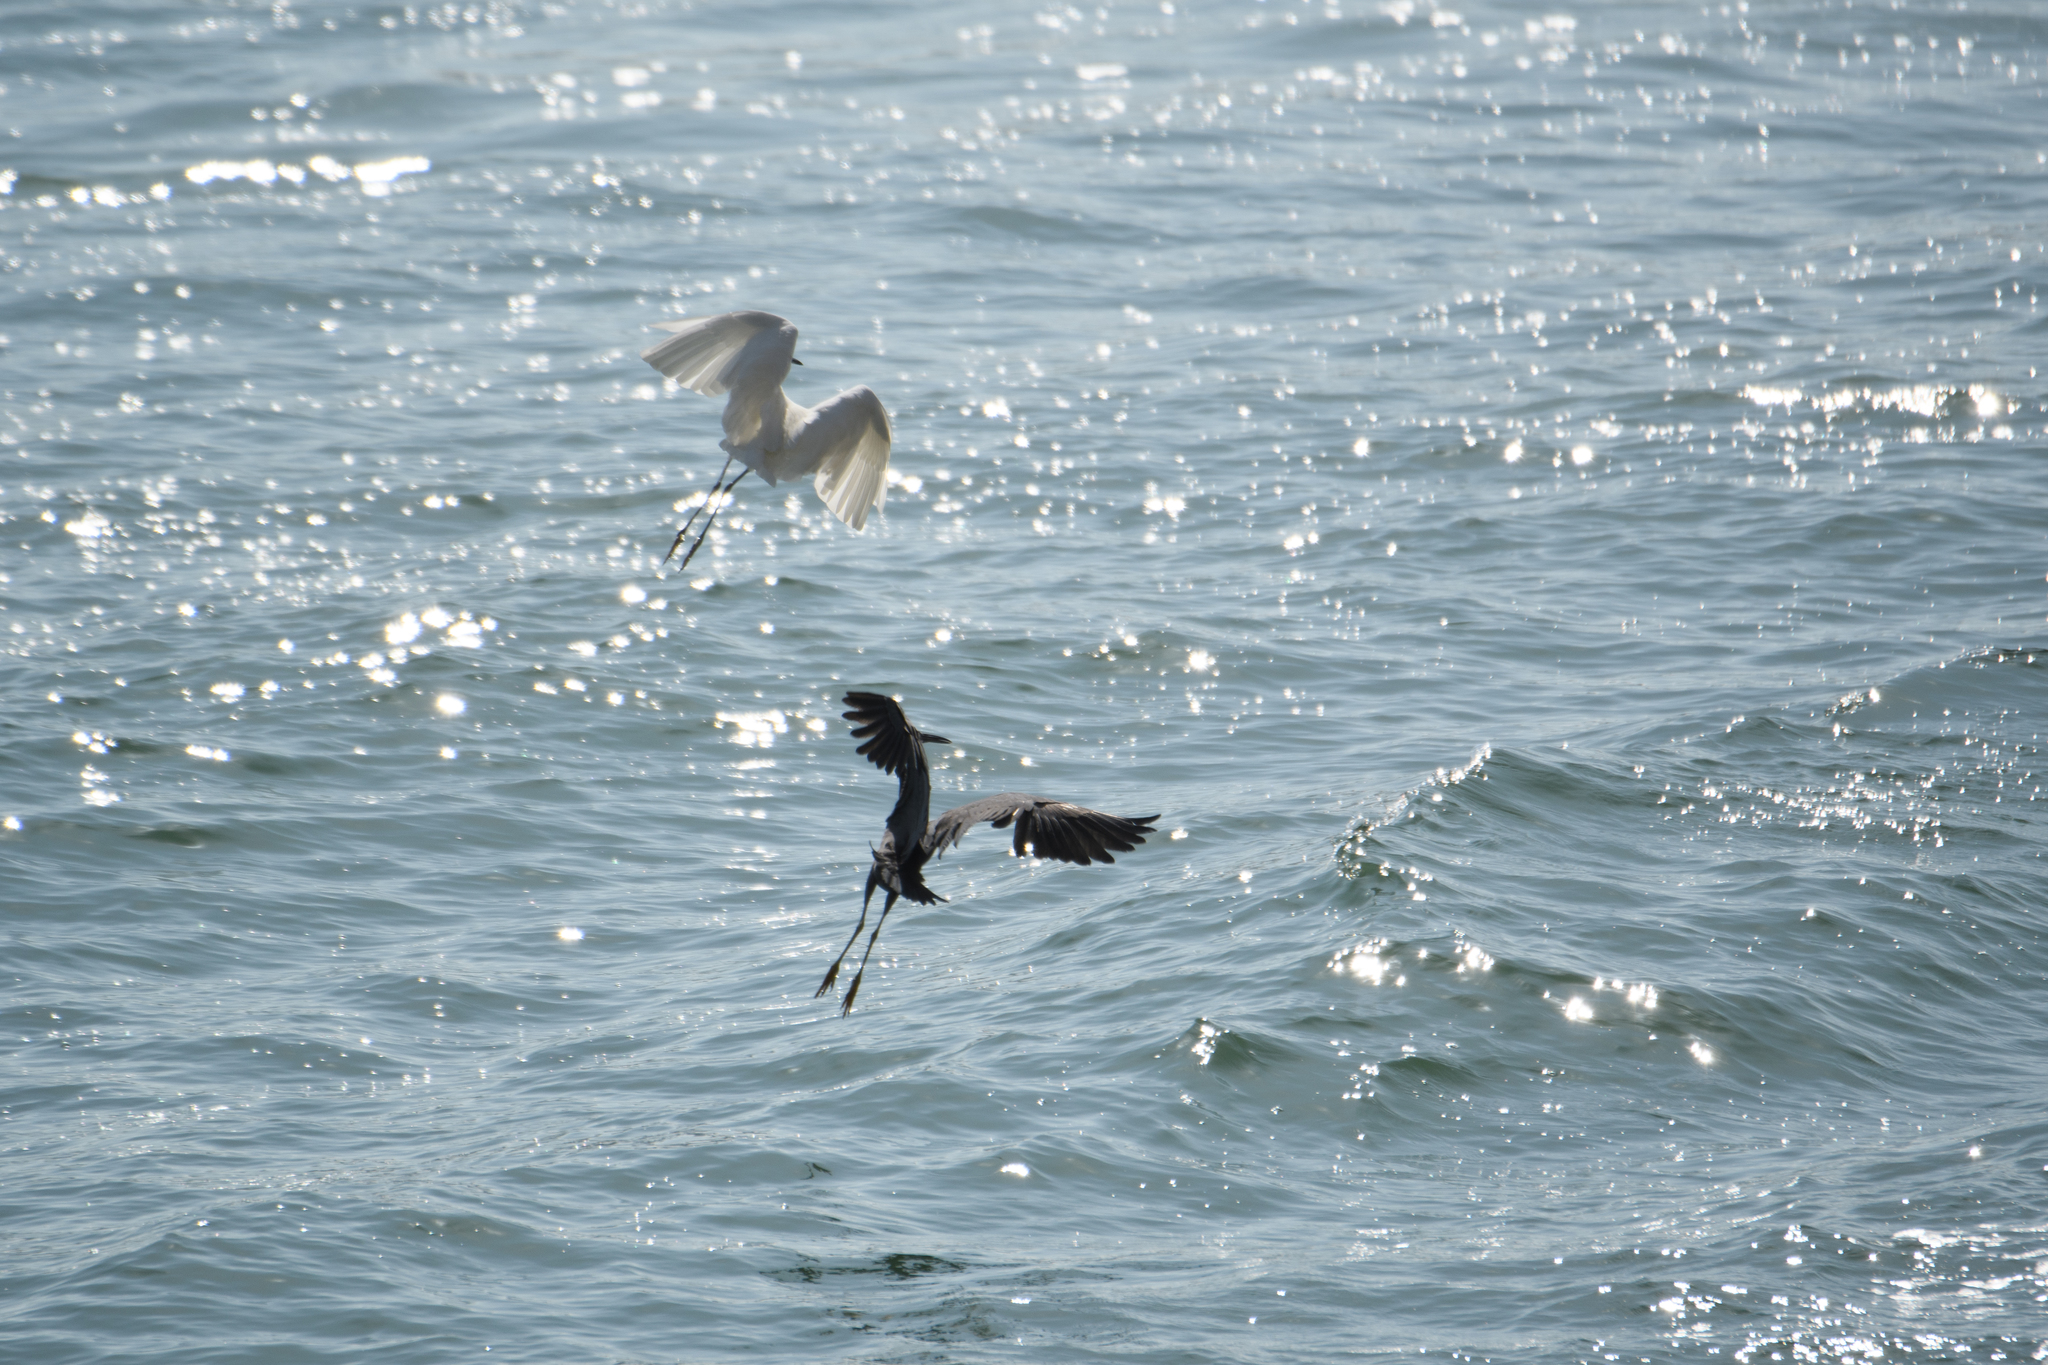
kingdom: Animalia
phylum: Chordata
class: Aves
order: Pelecaniformes
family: Ardeidae
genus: Egretta
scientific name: Egretta garzetta
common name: Little egret
